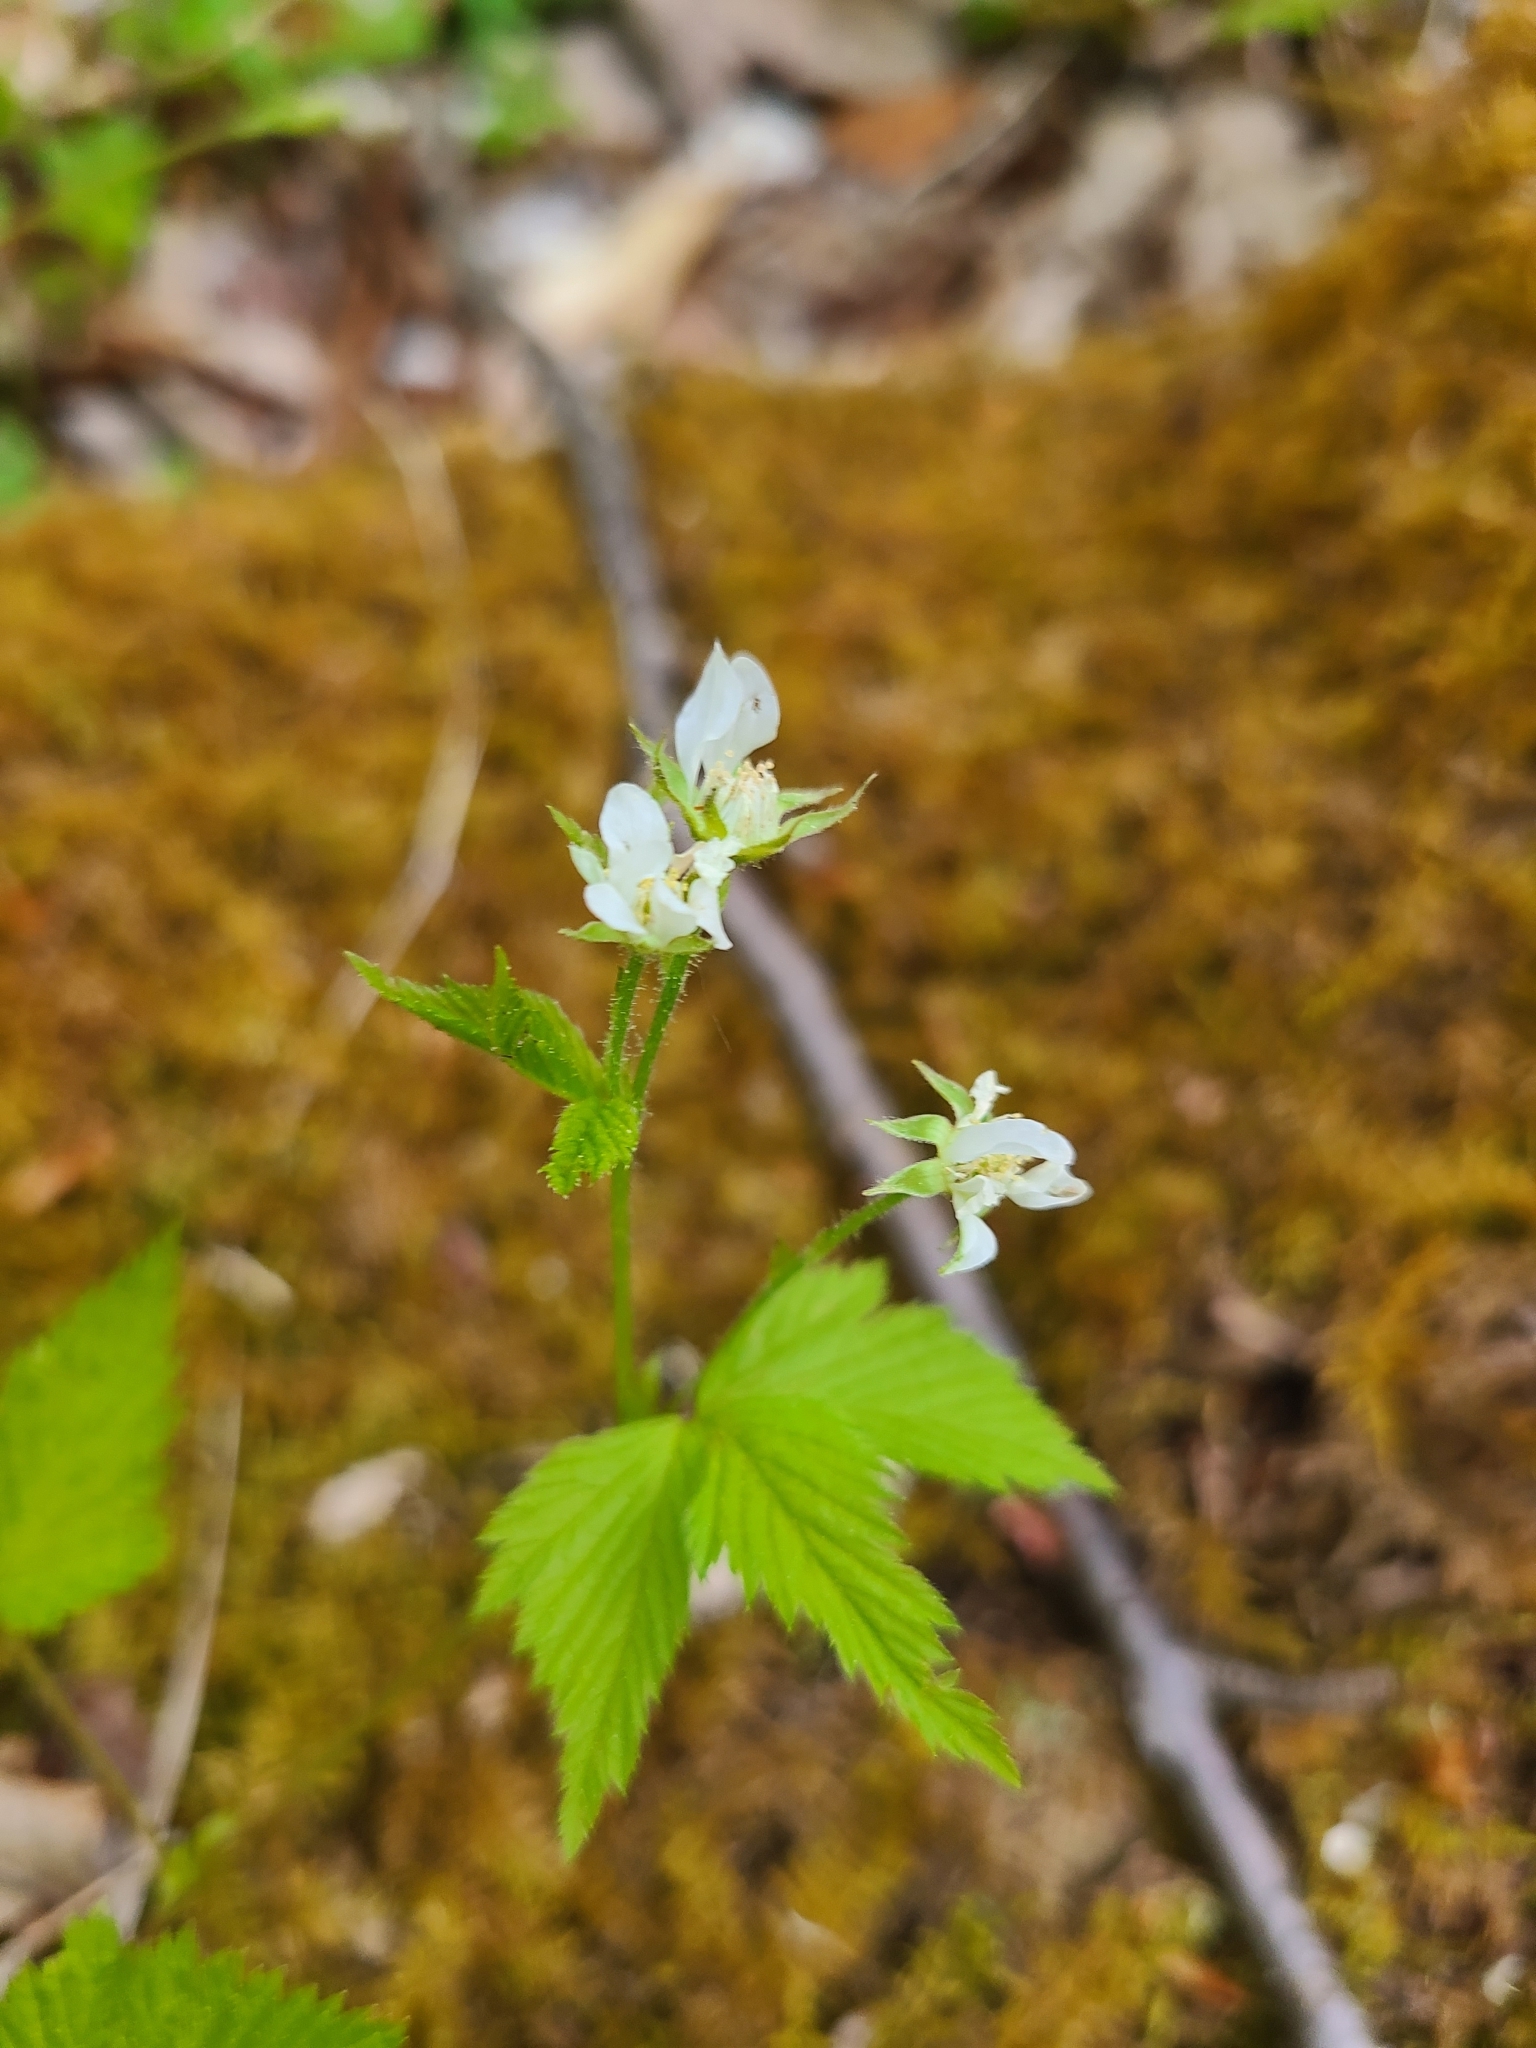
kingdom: Plantae
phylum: Tracheophyta
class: Magnoliopsida
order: Rosales
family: Rosaceae
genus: Rubus
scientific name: Rubus pubescens
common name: Dwarf raspberry
